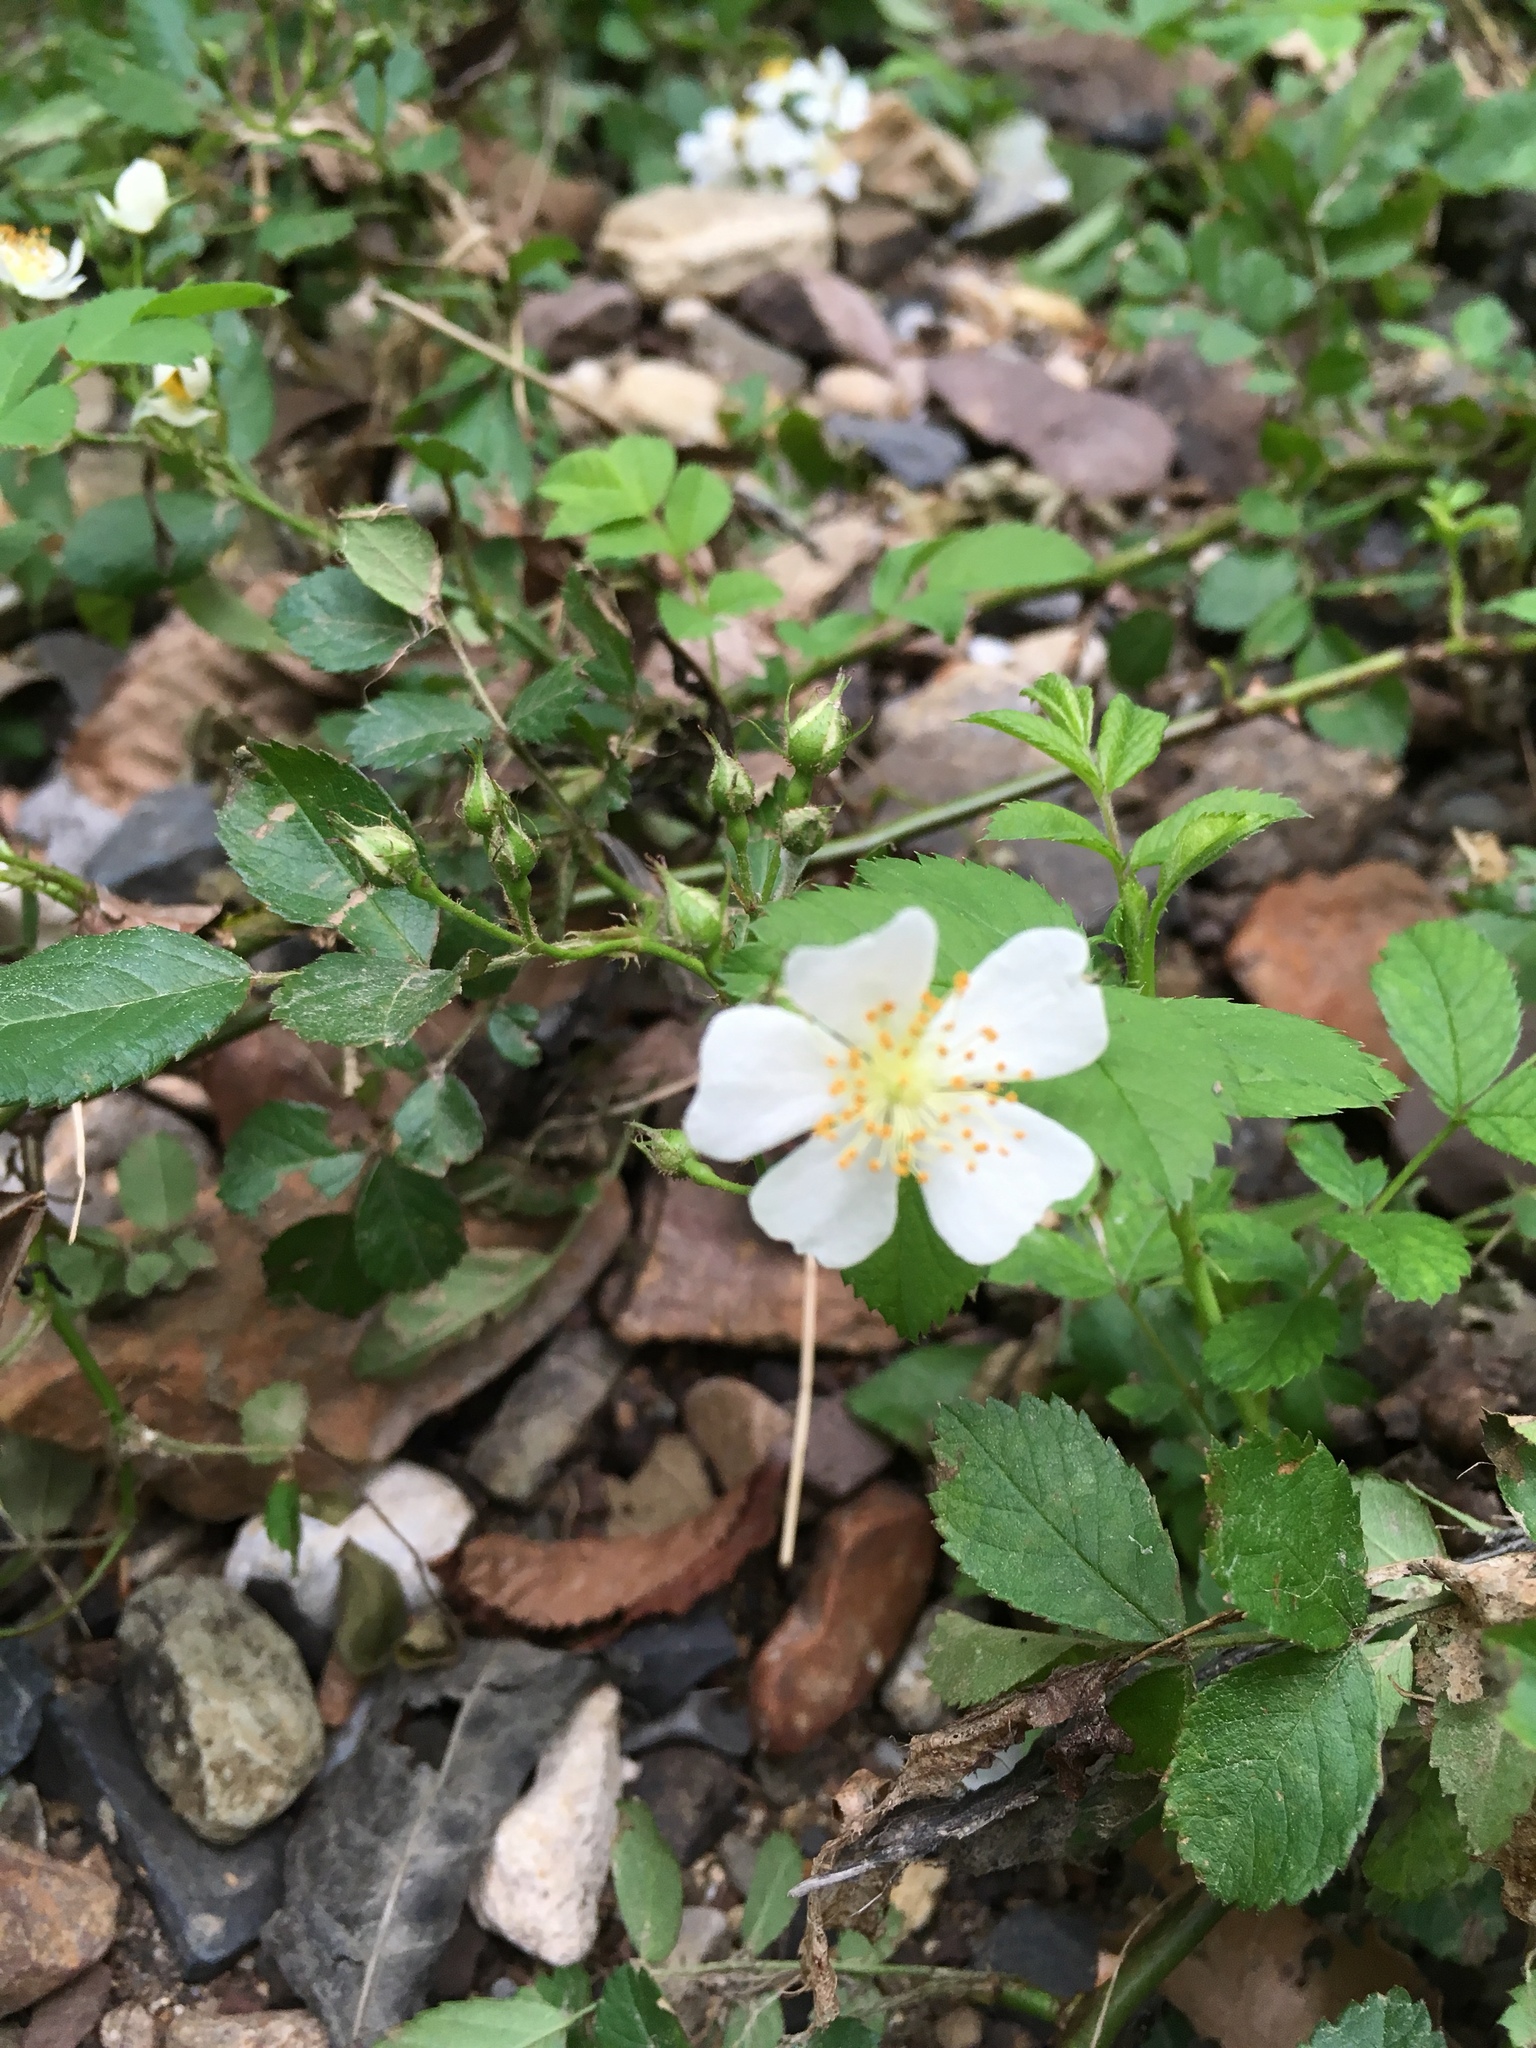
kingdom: Plantae
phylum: Tracheophyta
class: Magnoliopsida
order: Rosales
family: Rosaceae
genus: Rosa
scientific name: Rosa multiflora
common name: Multiflora rose
